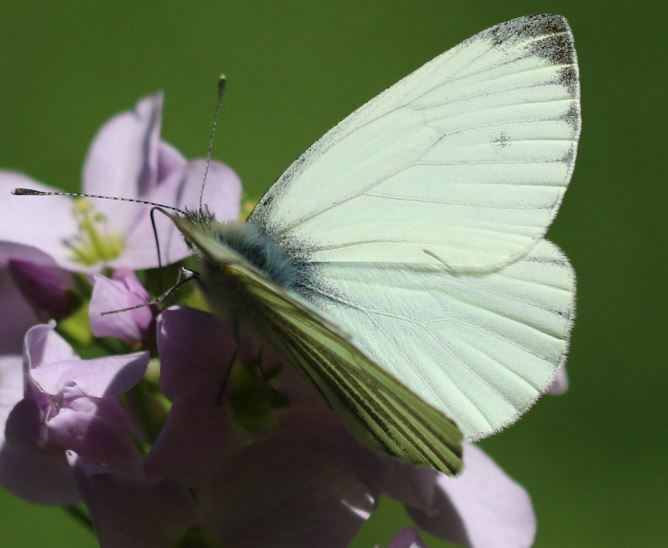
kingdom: Animalia
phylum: Arthropoda
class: Insecta
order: Lepidoptera
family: Pieridae
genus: Pieris
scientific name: Pieris napi
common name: Green-veined white
